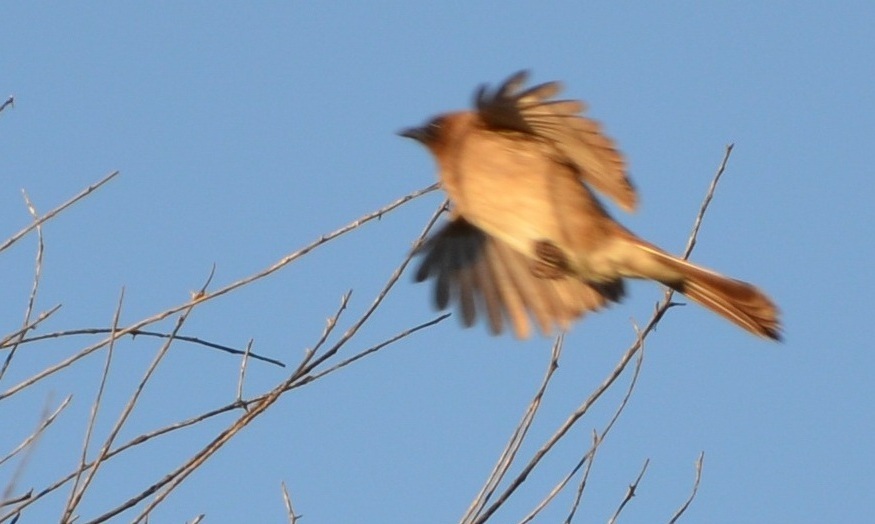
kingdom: Animalia
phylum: Chordata
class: Aves
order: Passeriformes
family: Pycnonotidae
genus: Pycnonotus
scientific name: Pycnonotus barbatus
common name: Common bulbul
